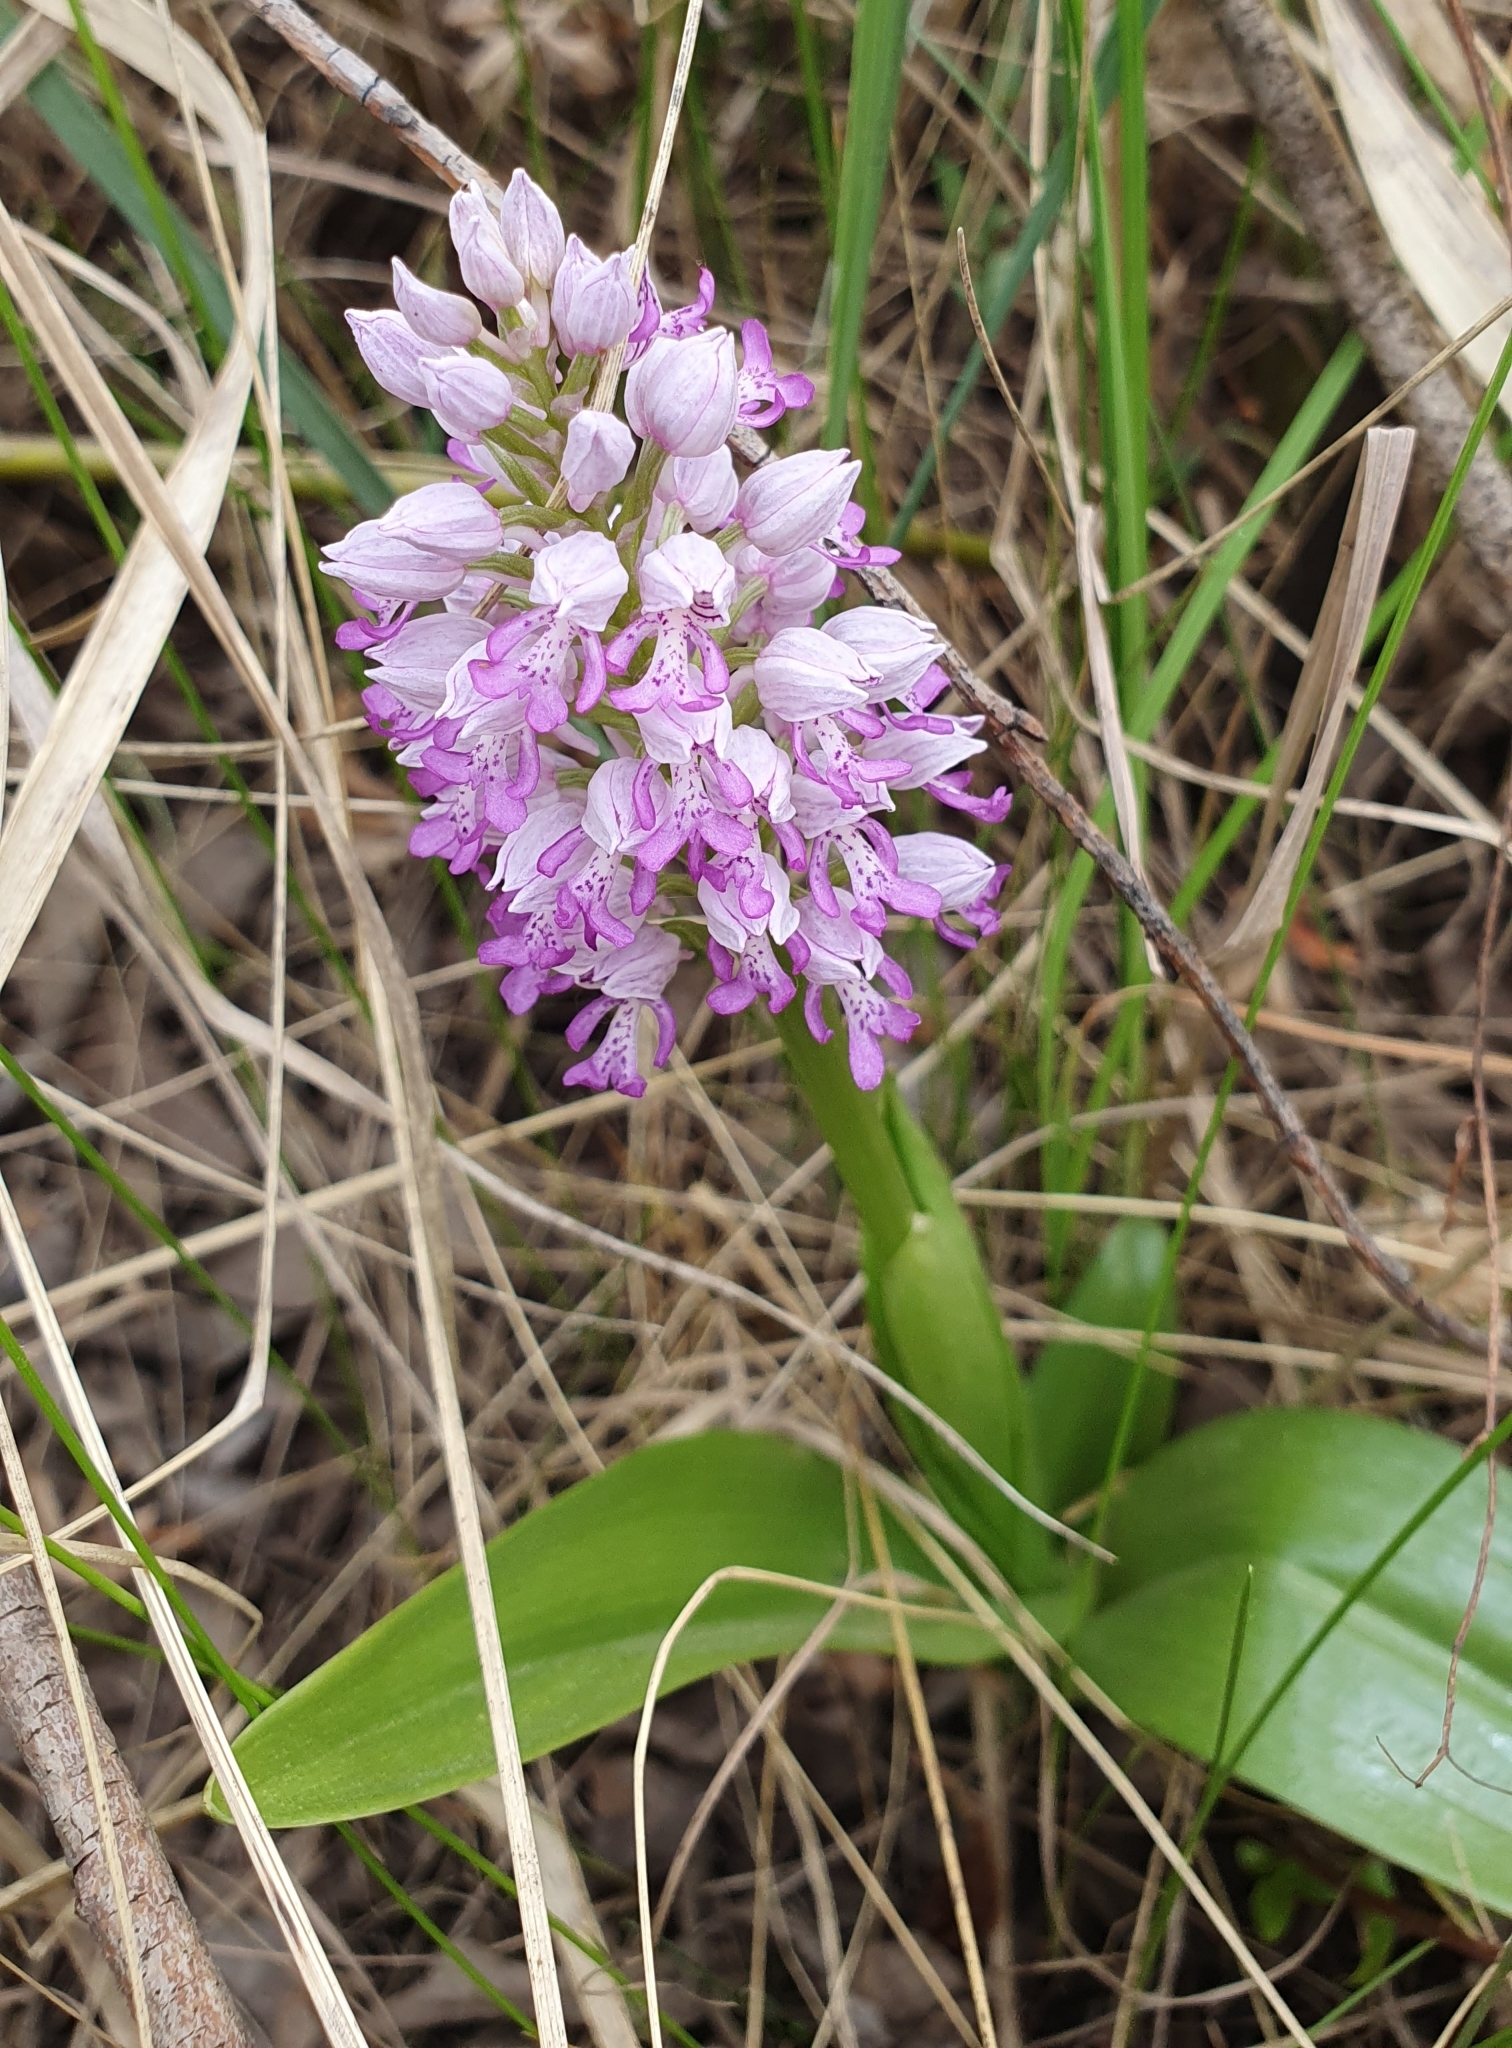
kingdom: Plantae
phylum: Tracheophyta
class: Liliopsida
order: Asparagales
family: Orchidaceae
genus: Orchis
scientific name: Orchis militaris
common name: Military orchid
